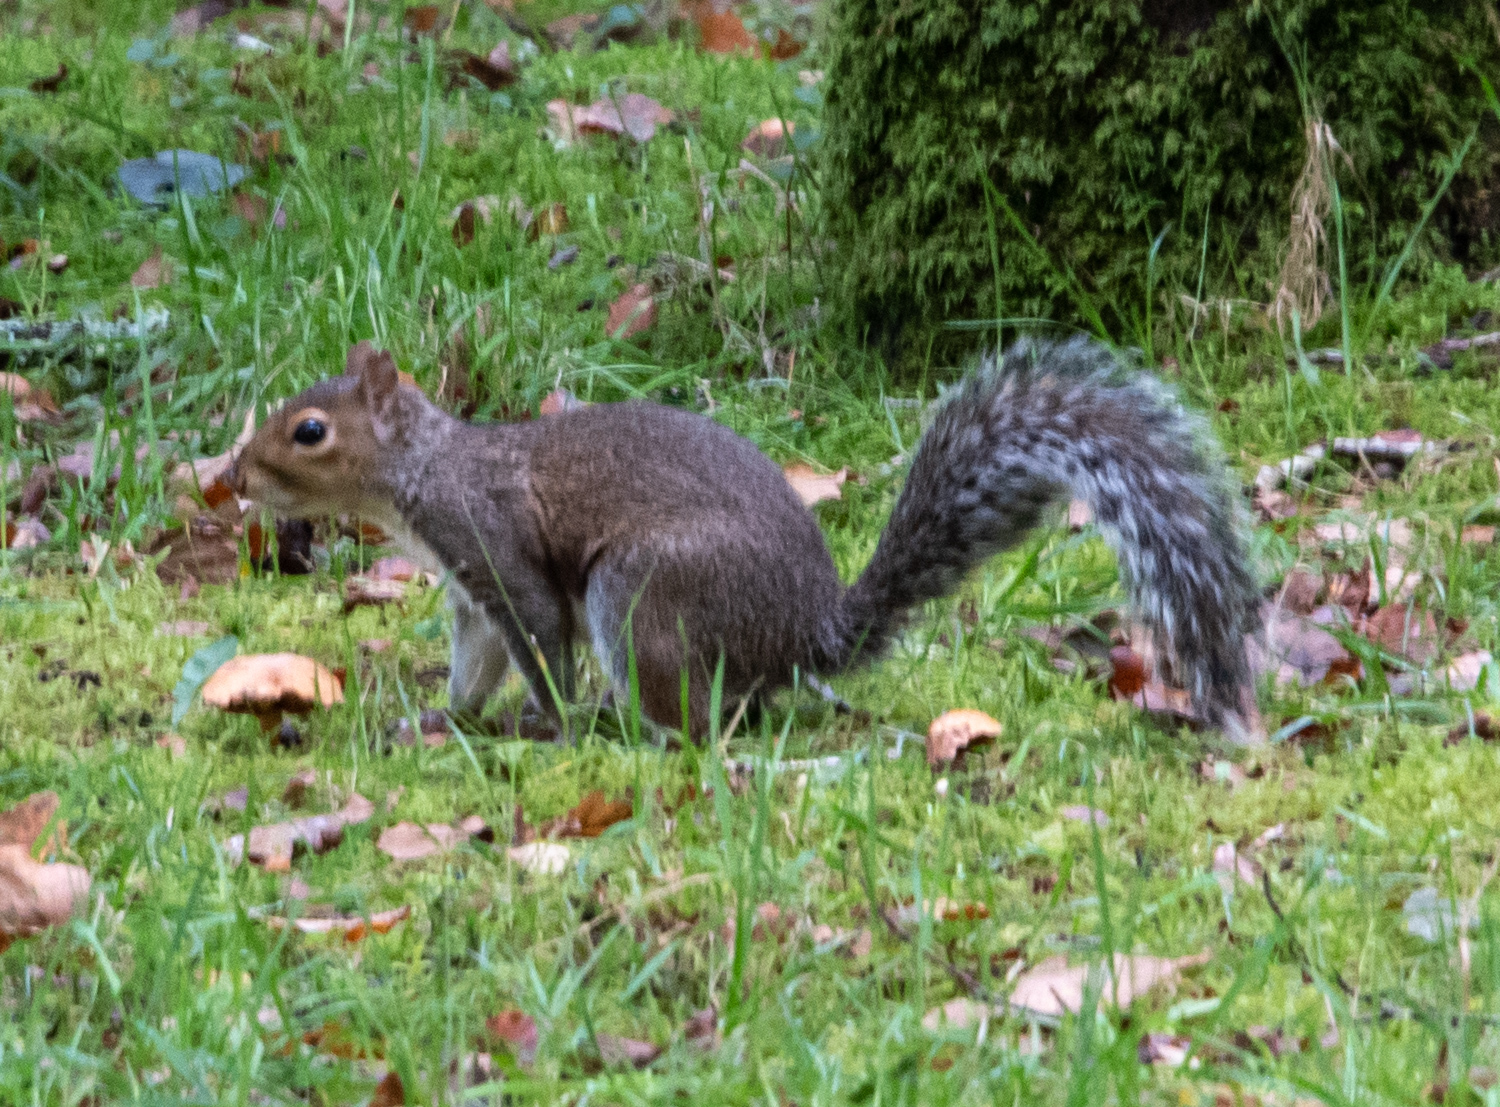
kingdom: Animalia
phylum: Chordata
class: Mammalia
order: Rodentia
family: Sciuridae
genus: Sciurus
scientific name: Sciurus carolinensis
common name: Eastern gray squirrel
